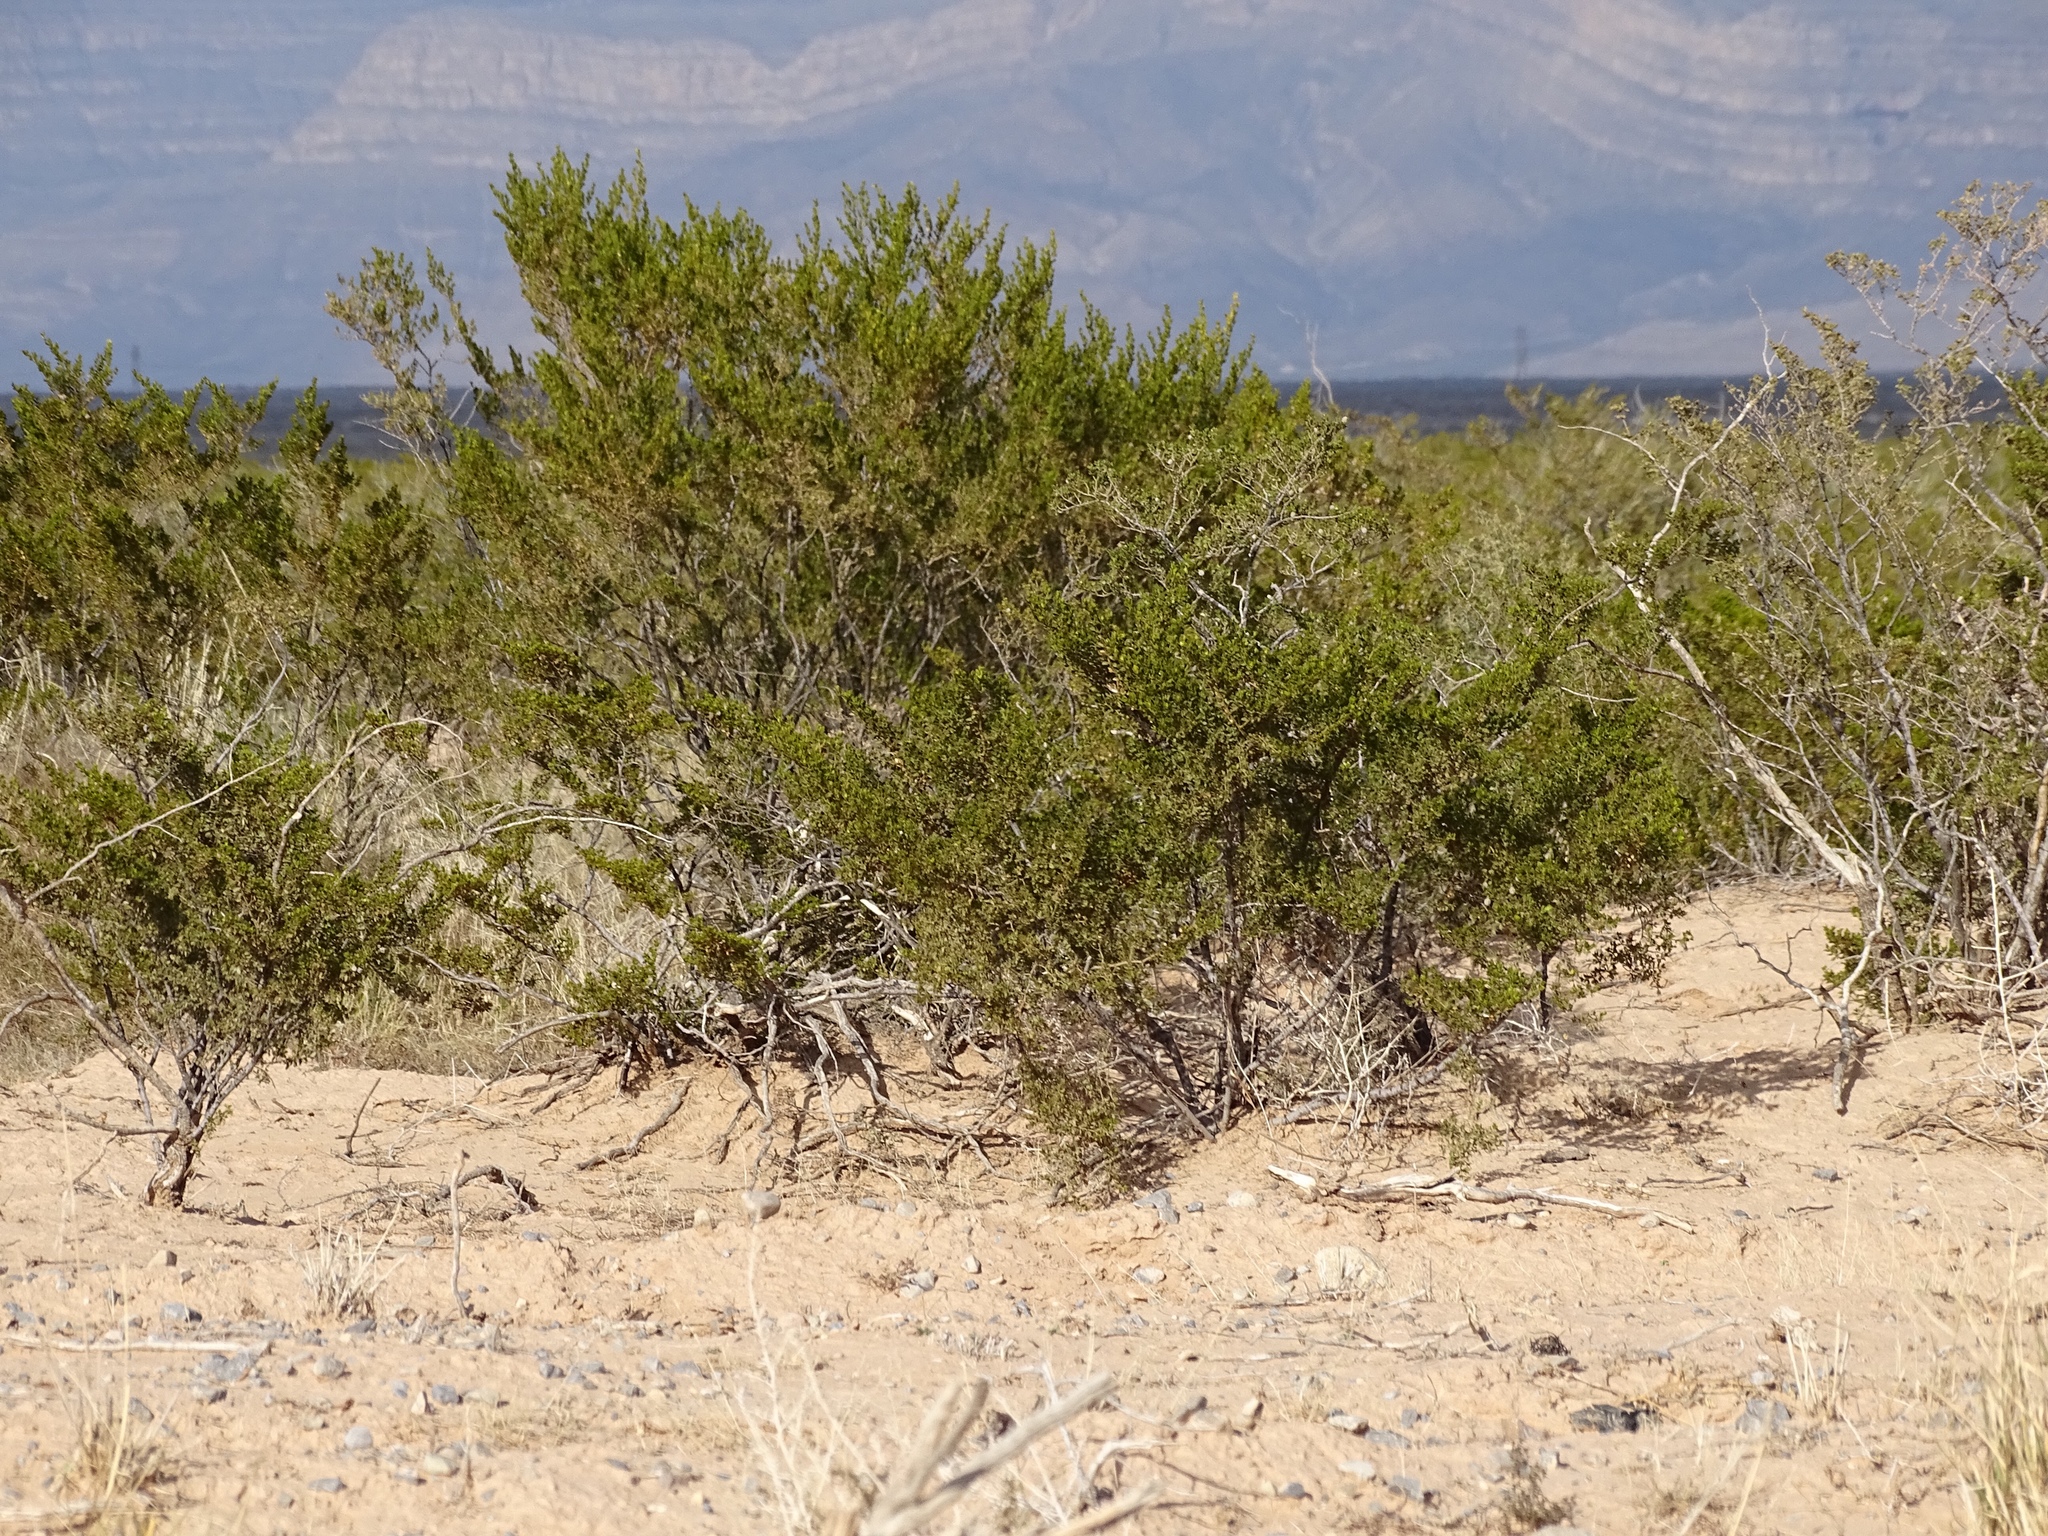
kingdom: Plantae
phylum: Tracheophyta
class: Magnoliopsida
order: Zygophyllales
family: Zygophyllaceae
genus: Larrea
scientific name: Larrea tridentata
